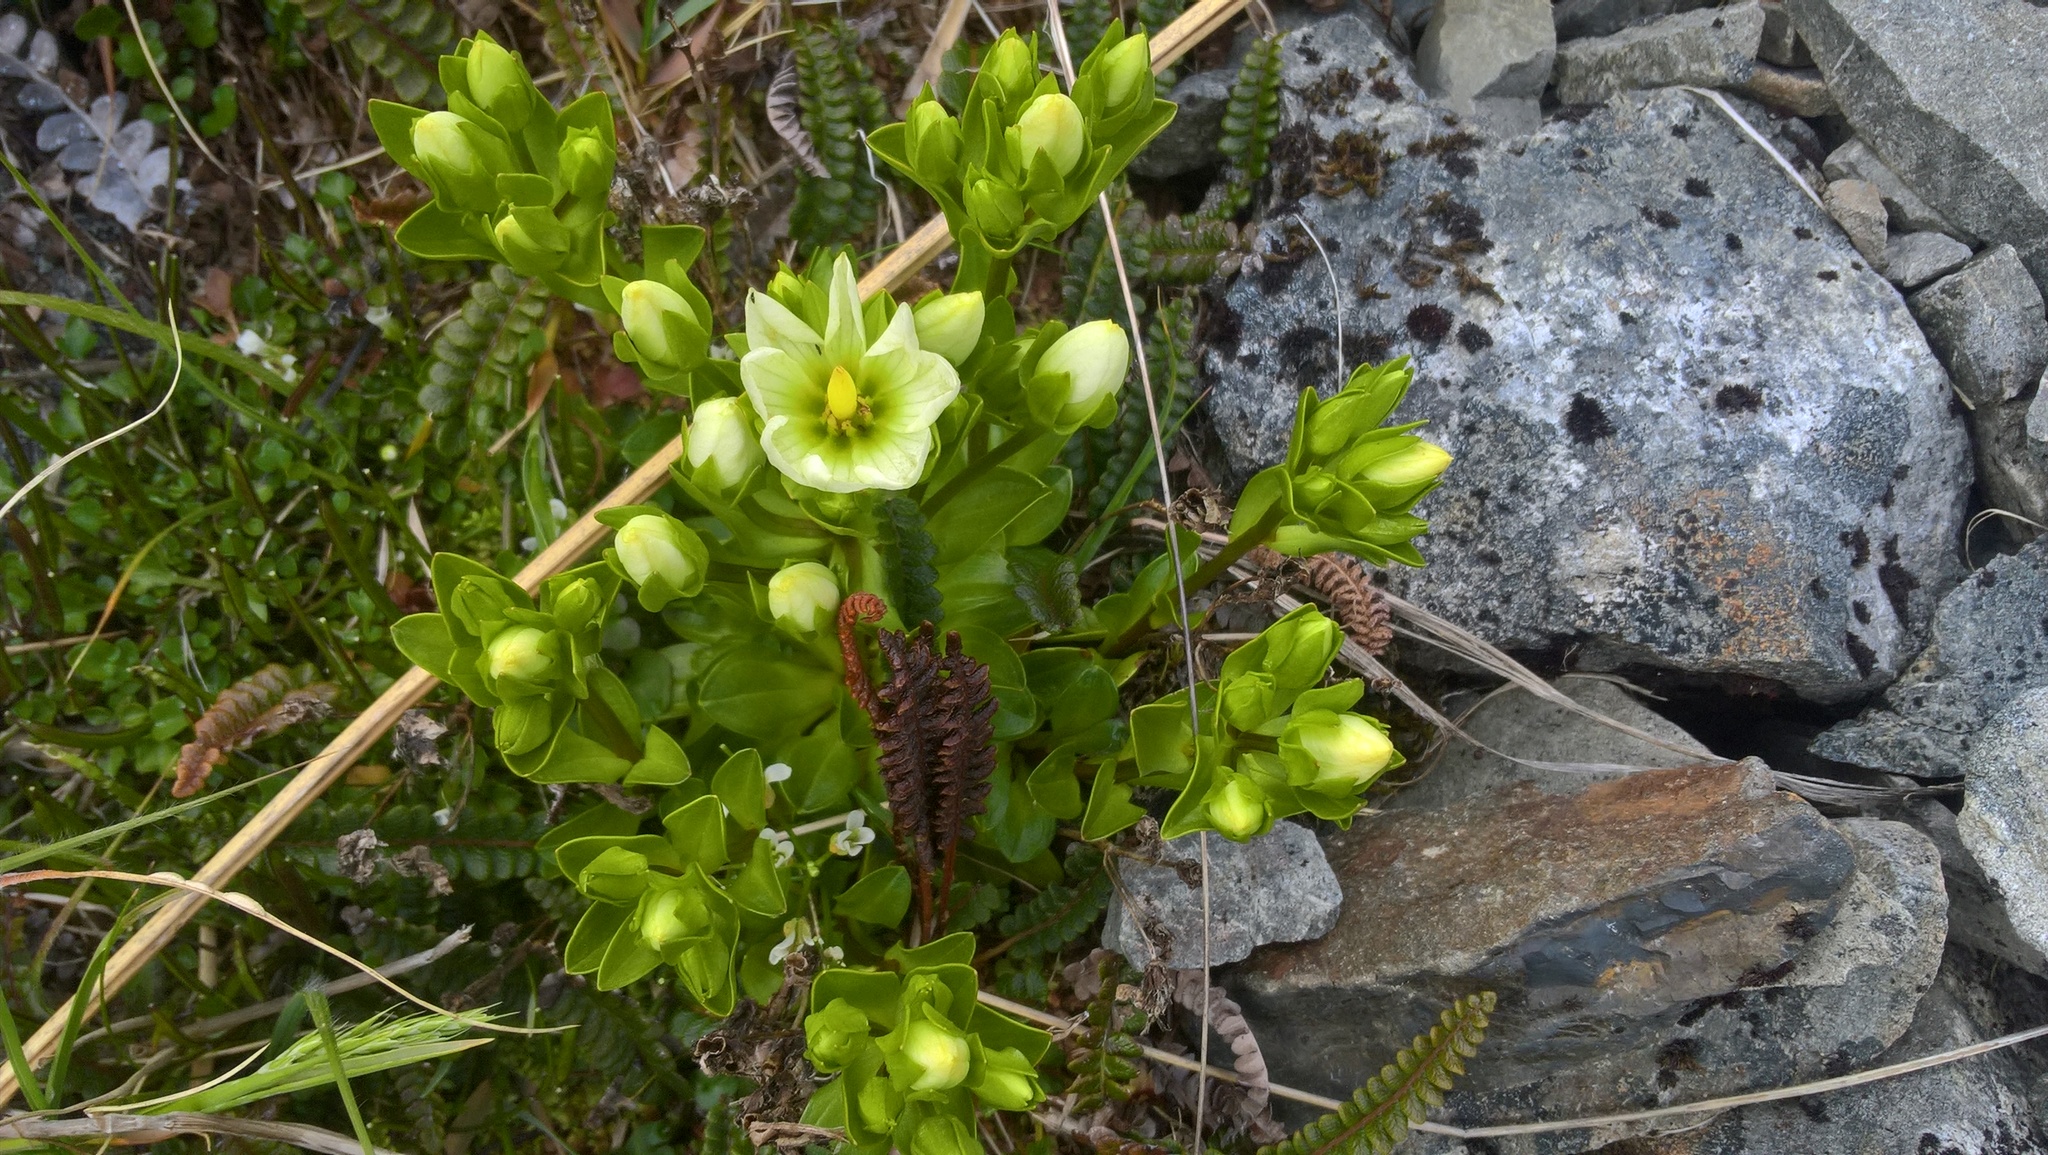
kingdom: Plantae
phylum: Tracheophyta
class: Magnoliopsida
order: Gentianales
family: Gentianaceae
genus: Gentianella
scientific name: Gentianella divisa
